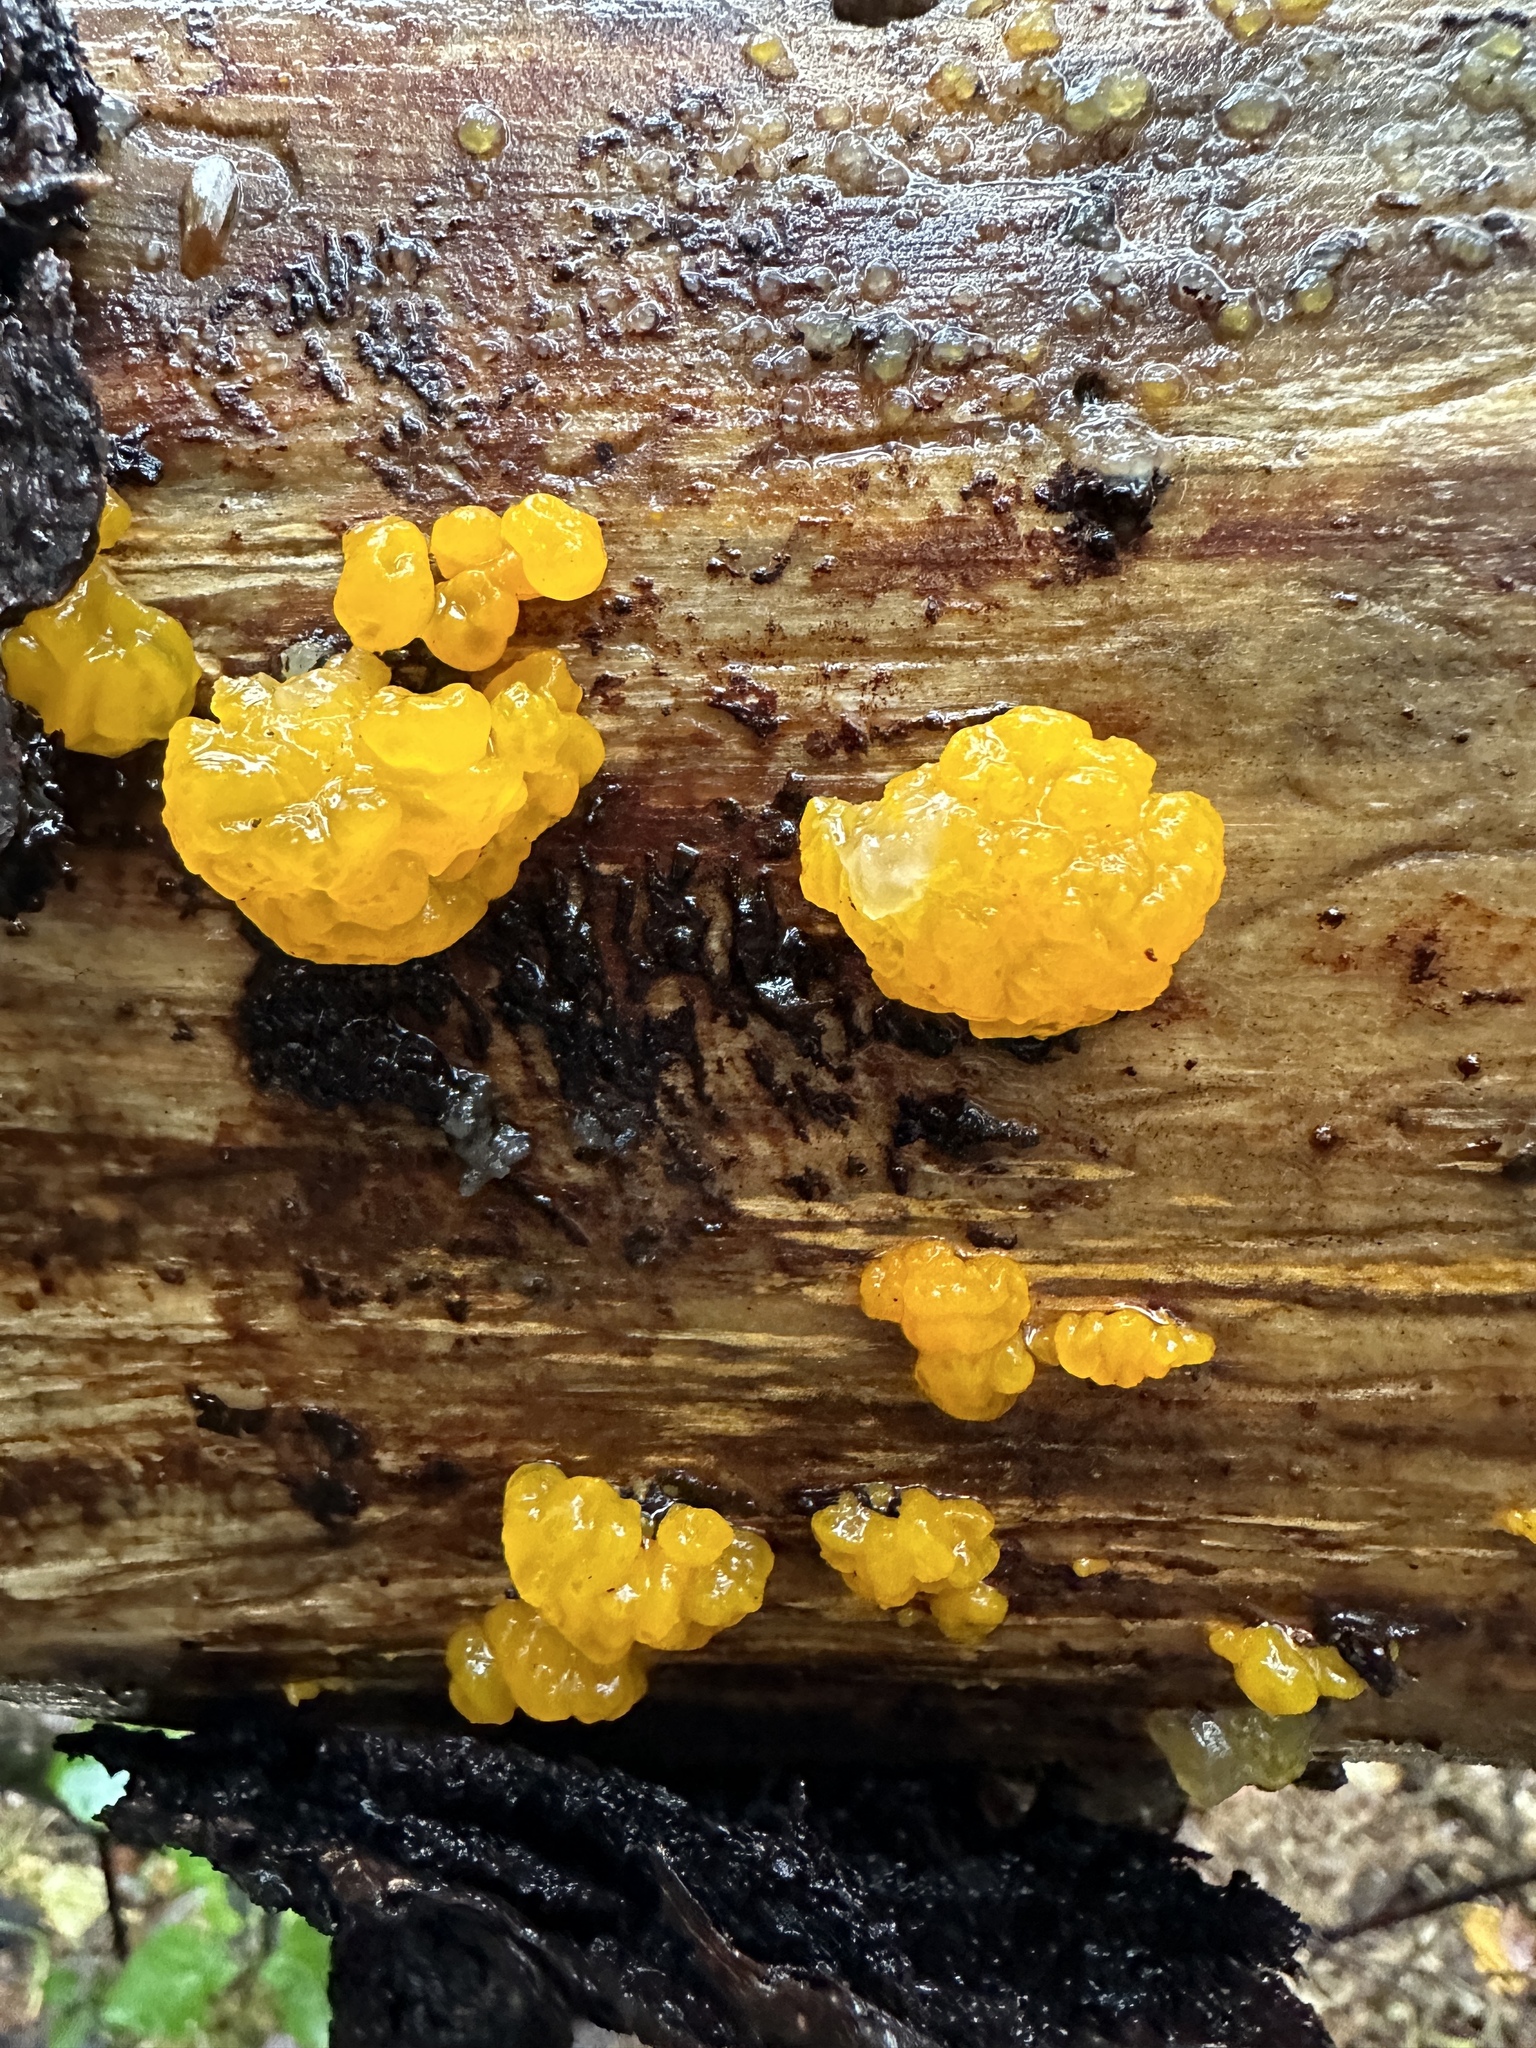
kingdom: Fungi
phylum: Basidiomycota
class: Dacrymycetes
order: Dacrymycetales
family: Dacrymycetaceae
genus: Dacrymyces
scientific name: Dacrymyces chrysospermus
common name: Orange jelly spot
